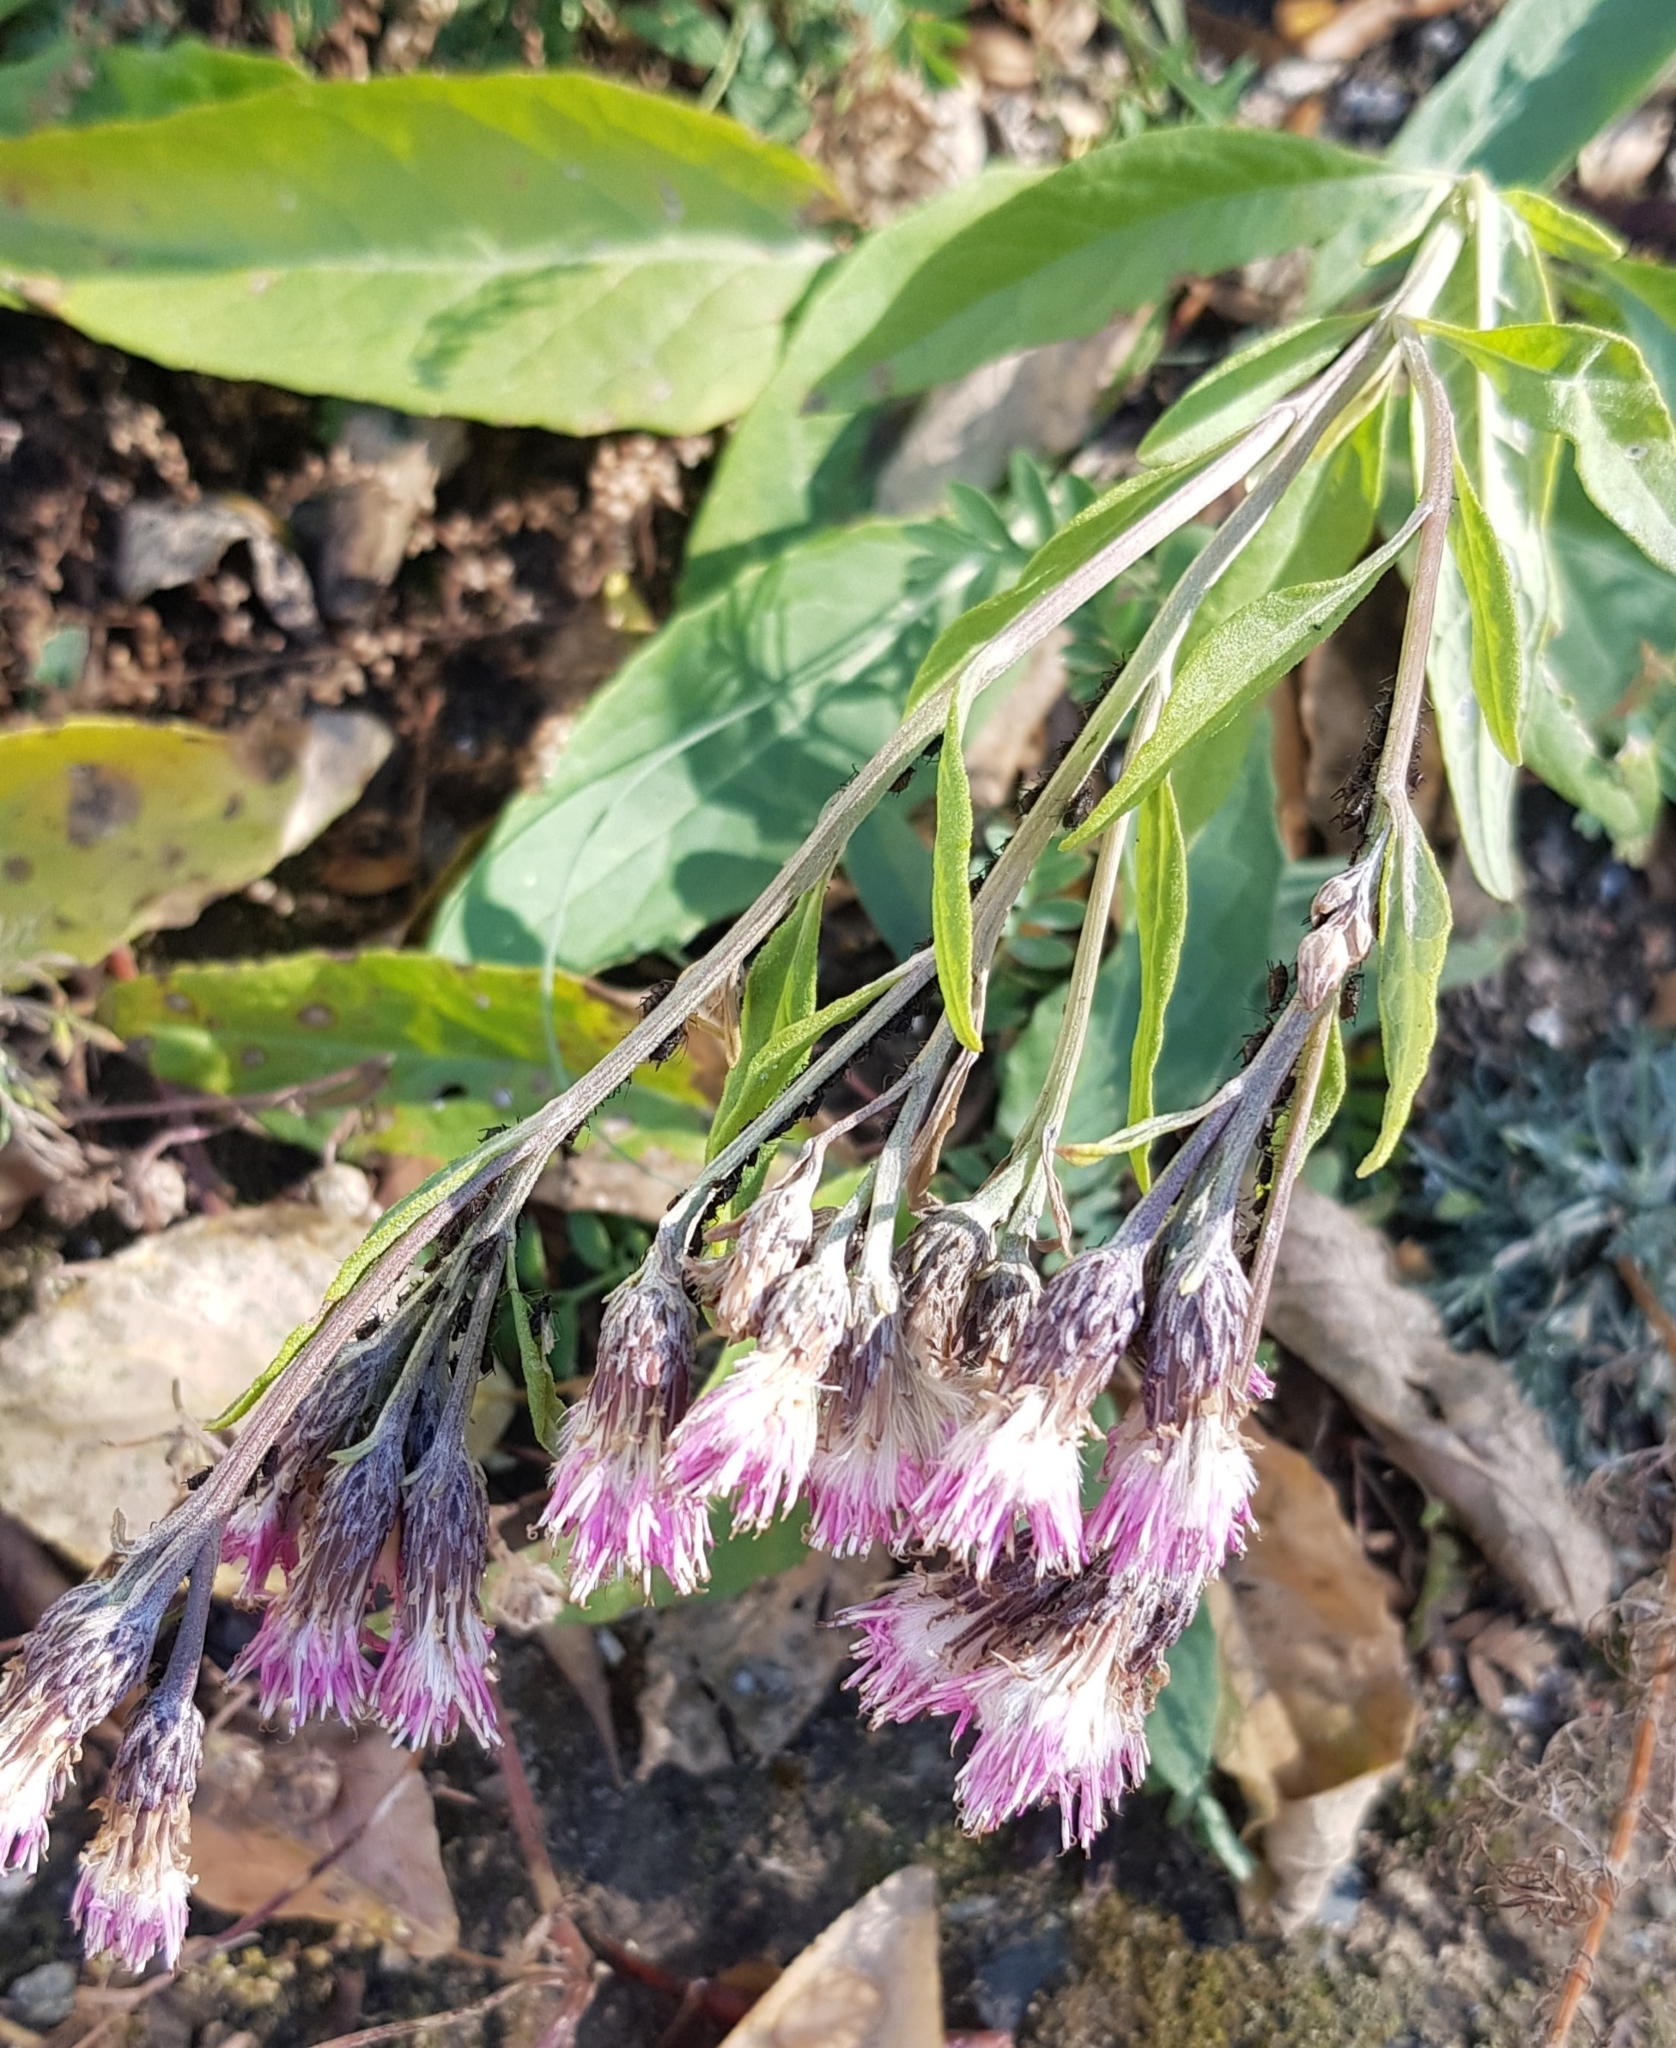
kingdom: Plantae
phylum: Tracheophyta
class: Magnoliopsida
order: Asterales
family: Asteraceae
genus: Saussurea
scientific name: Saussurea amara
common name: Alberta sawwort
